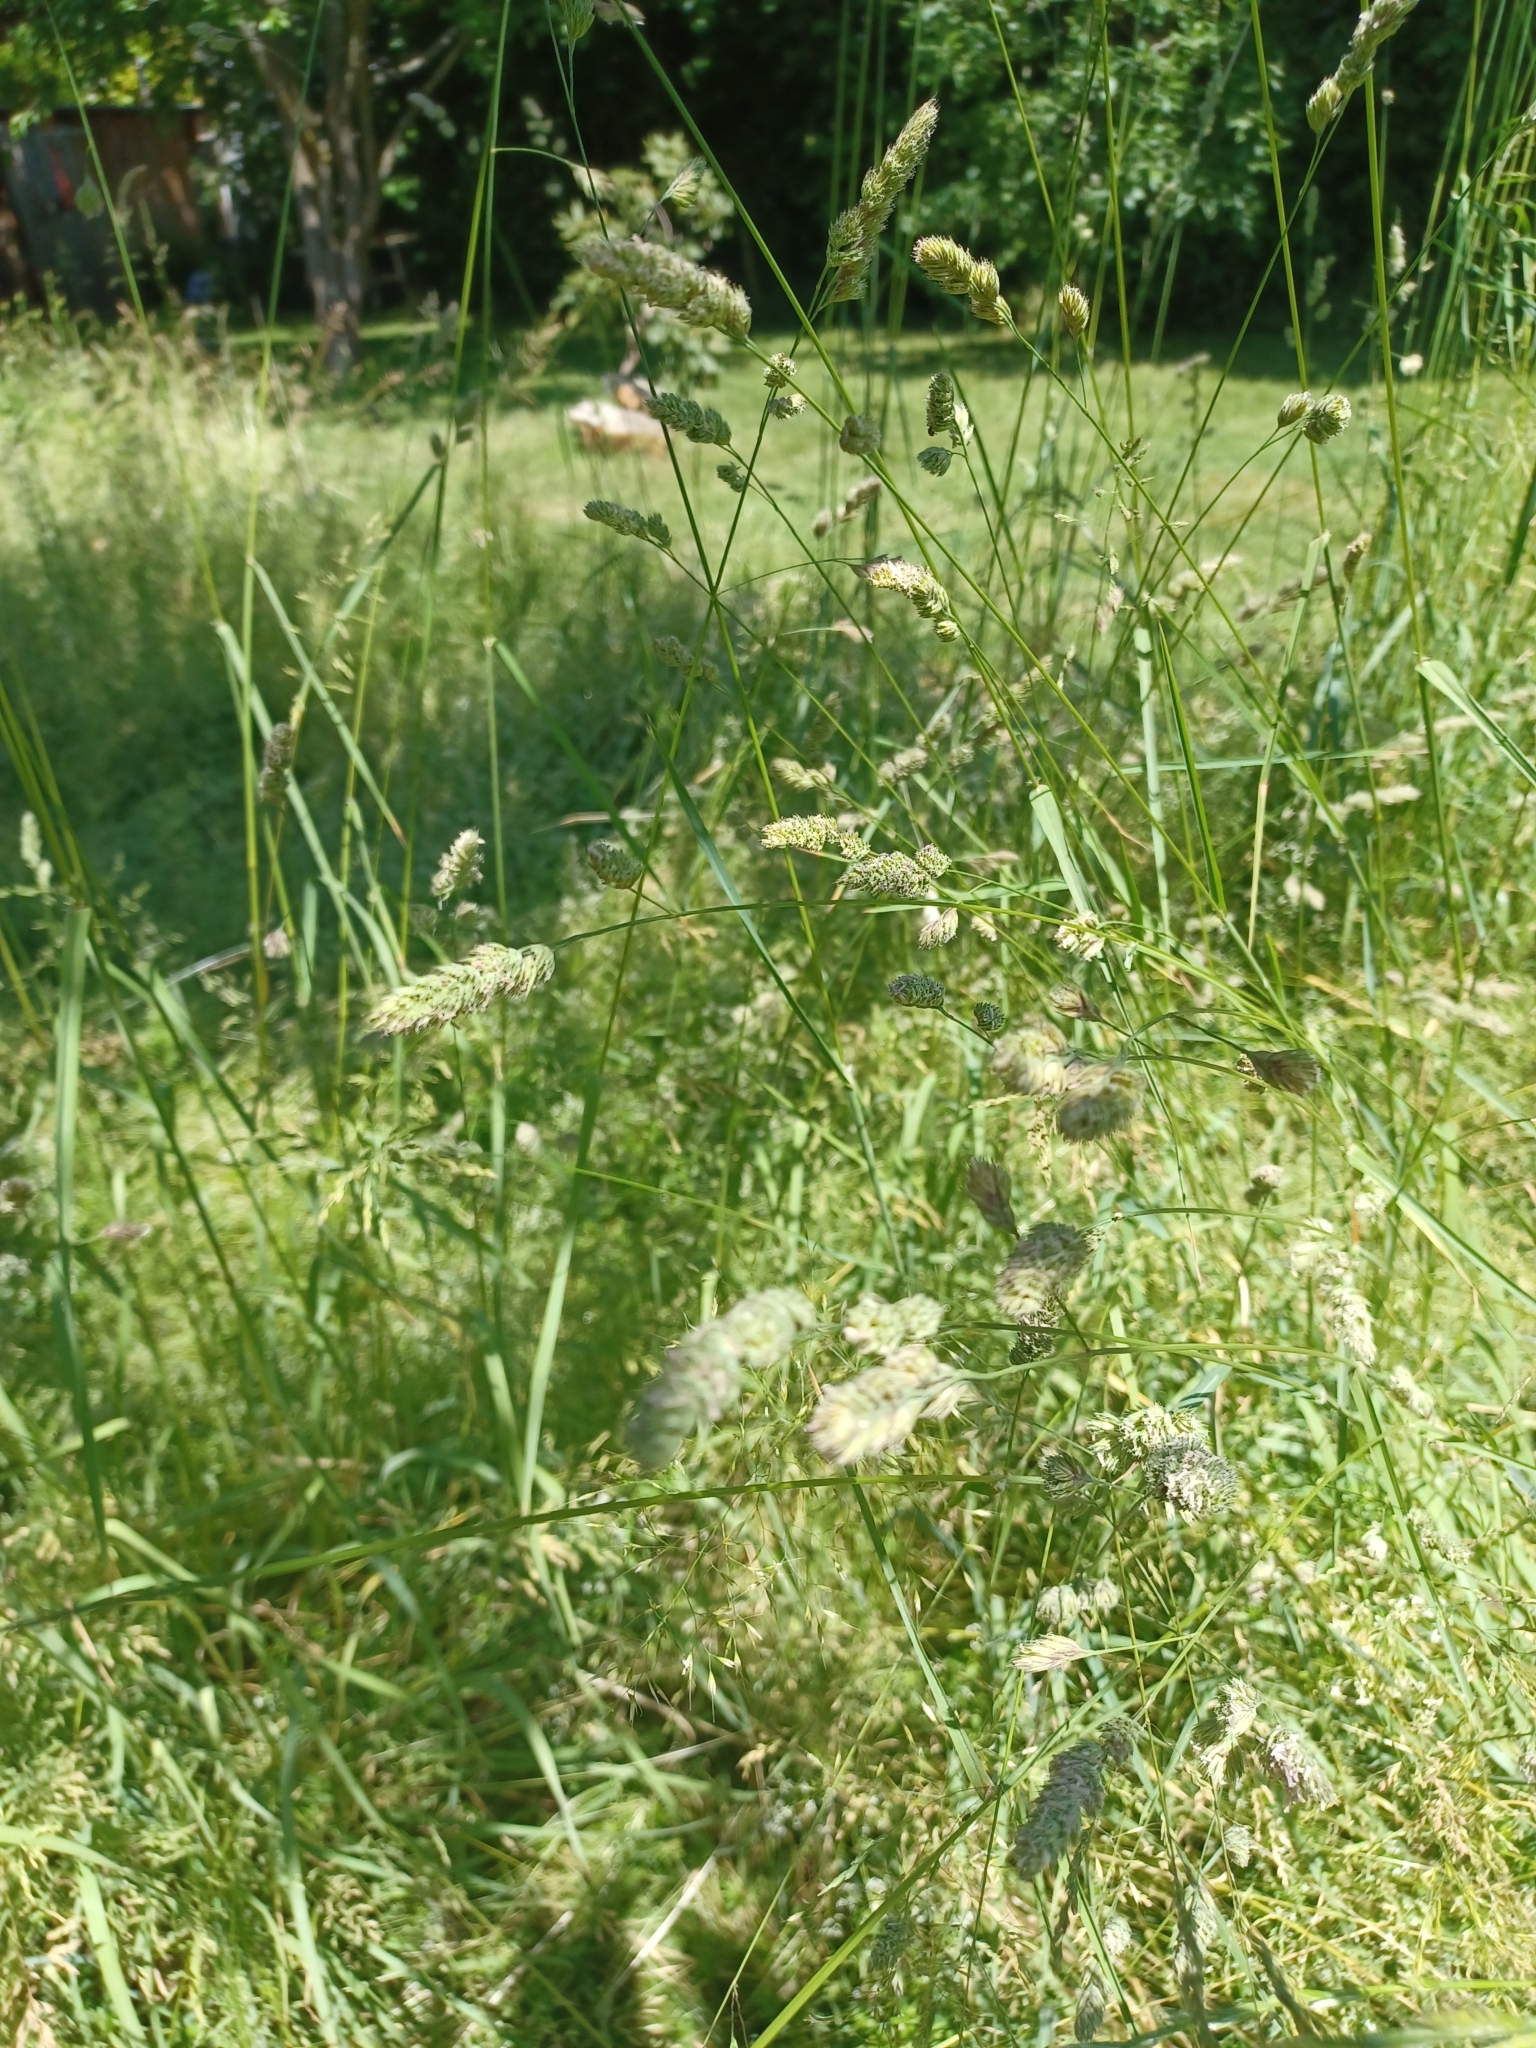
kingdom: Plantae
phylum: Tracheophyta
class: Liliopsida
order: Poales
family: Poaceae
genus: Dactylis
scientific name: Dactylis glomerata
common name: Orchardgrass
